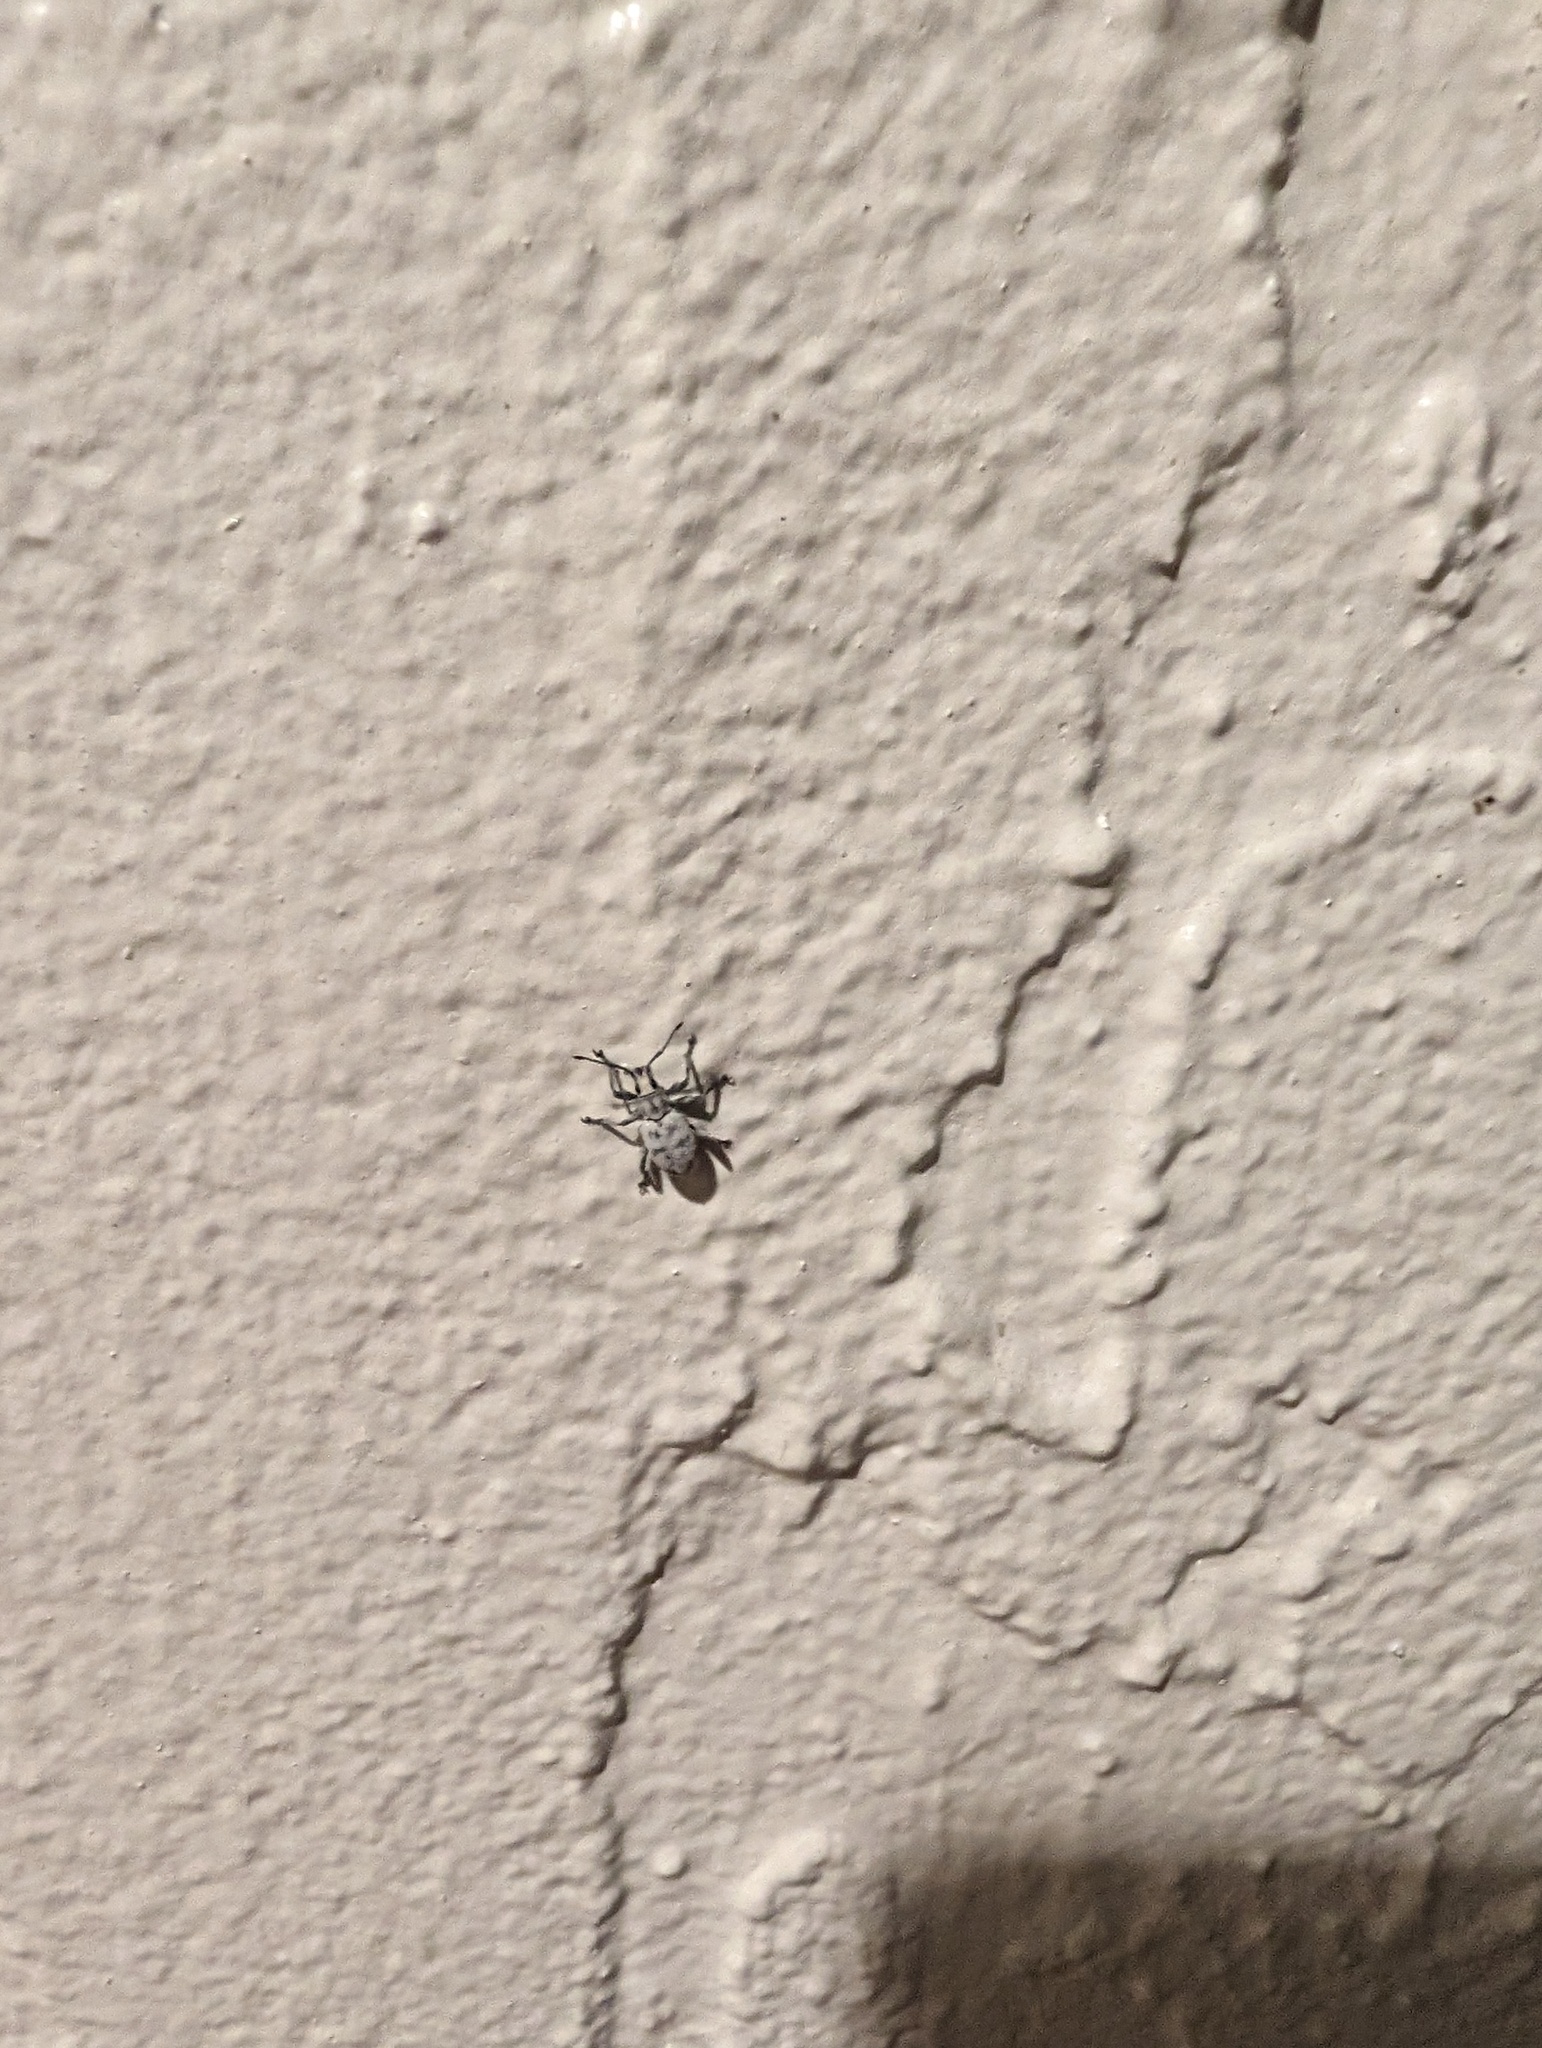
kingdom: Animalia
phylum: Arthropoda
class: Insecta
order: Coleoptera
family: Curculionidae
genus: Myllocerus
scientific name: Myllocerus undecimpustulatus
